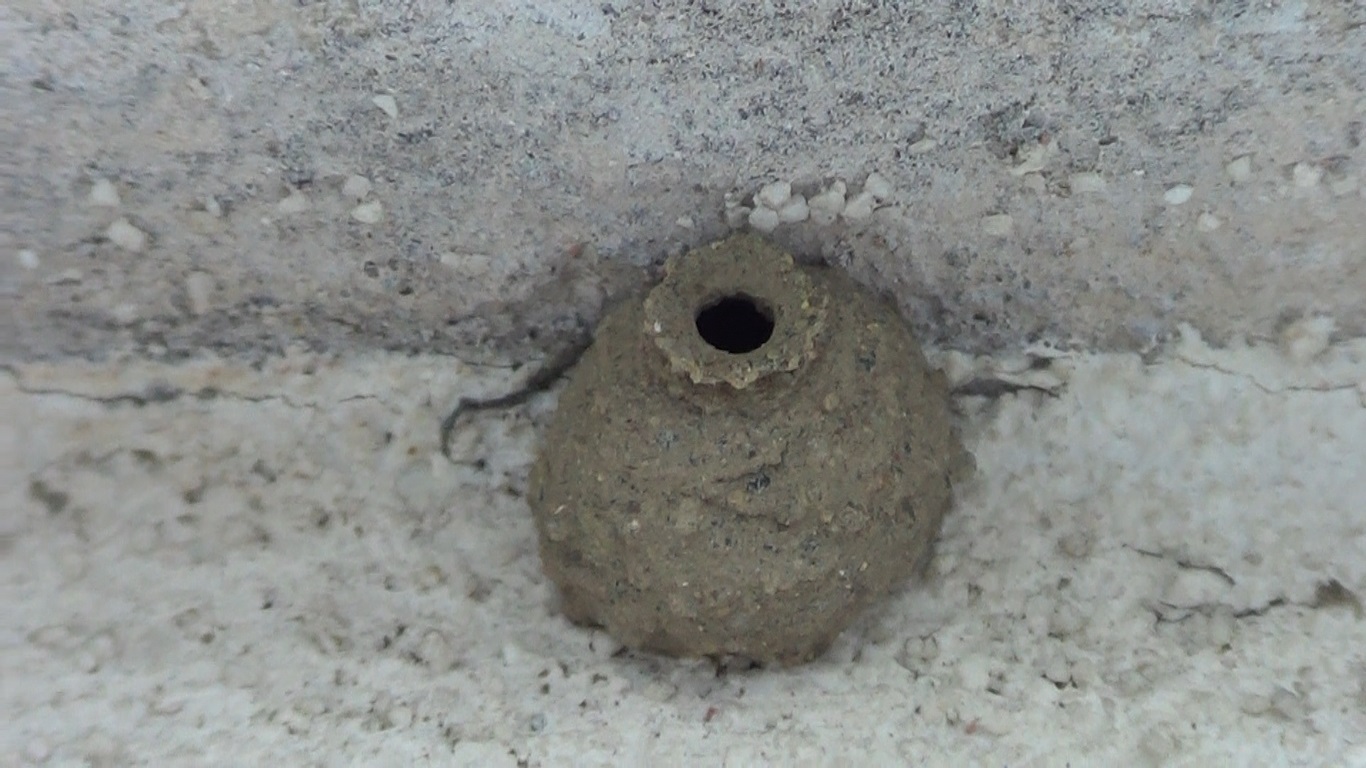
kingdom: Animalia
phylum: Arthropoda
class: Insecta
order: Hymenoptera
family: Vespidae
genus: Eumenes
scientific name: Eumenes
